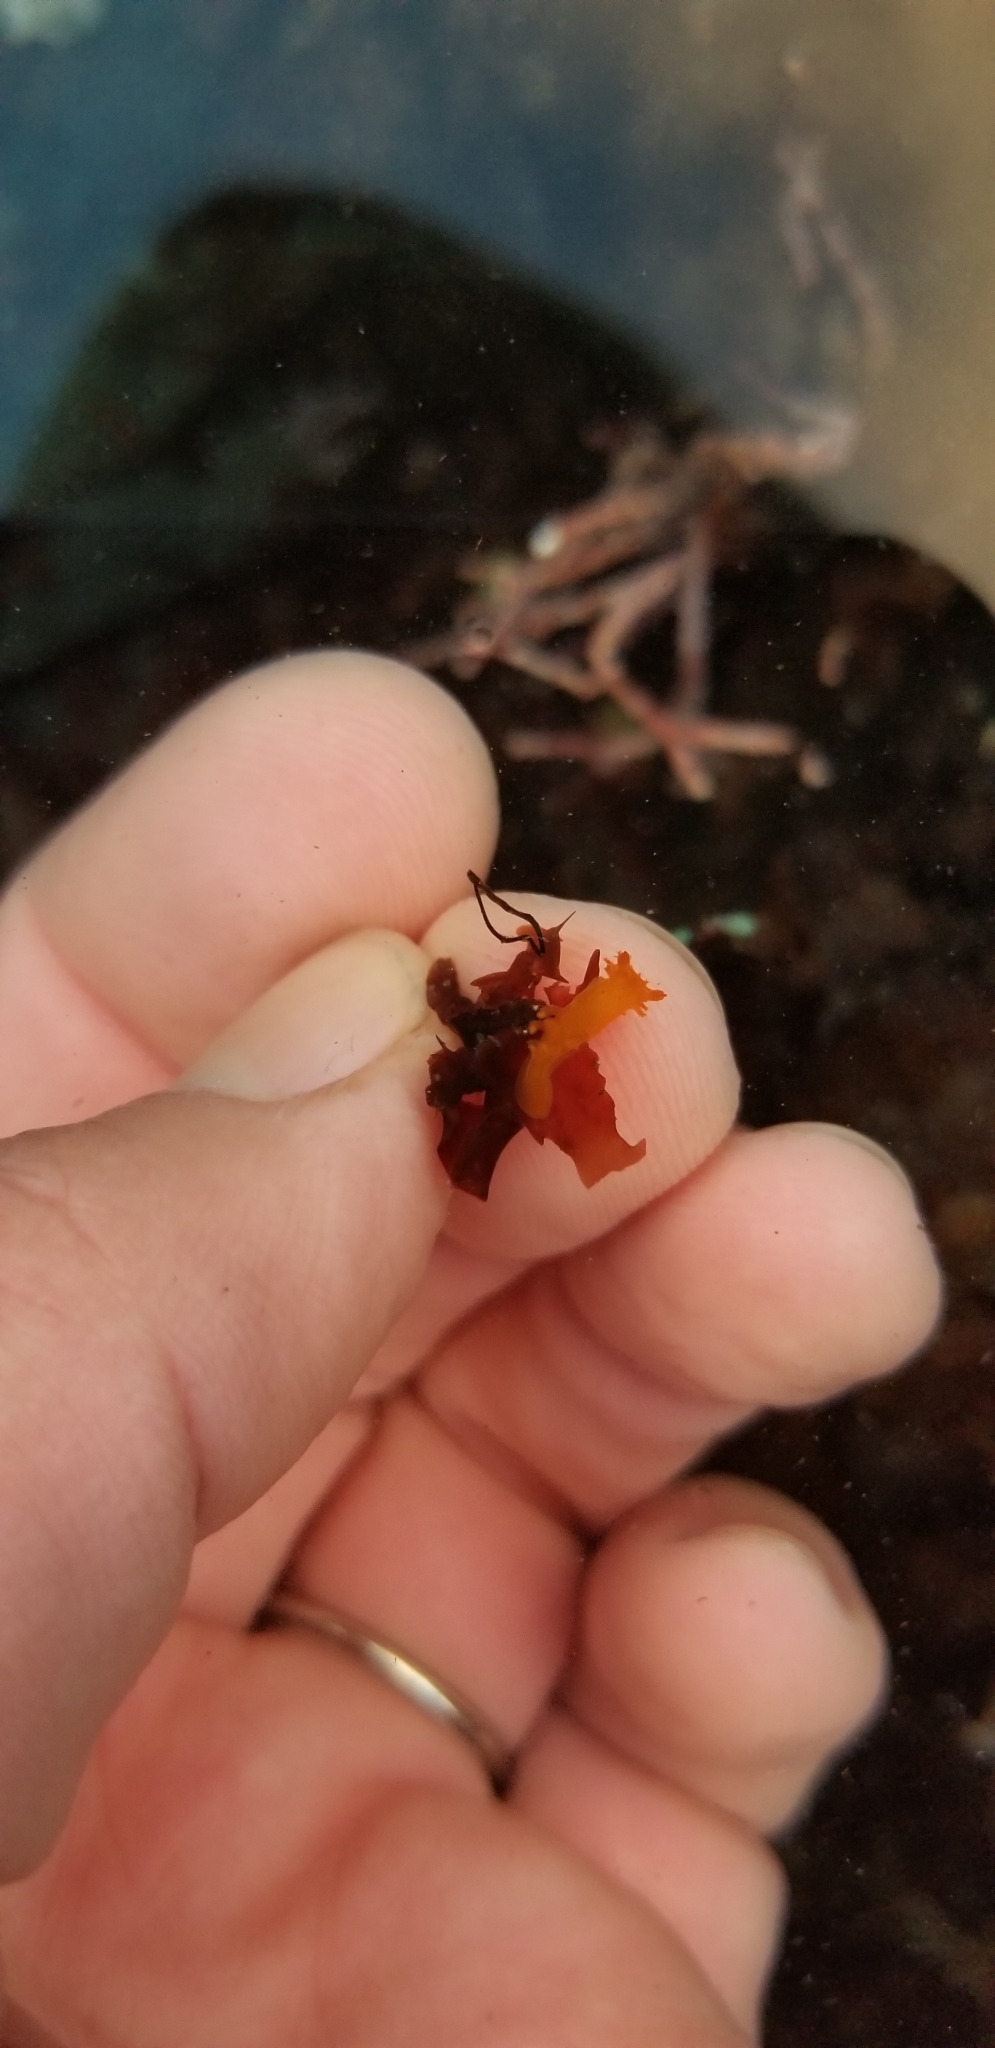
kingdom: Animalia
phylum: Mollusca
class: Gastropoda
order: Nudibranchia
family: Polyceridae
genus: Triopha
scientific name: Triopha maculata
